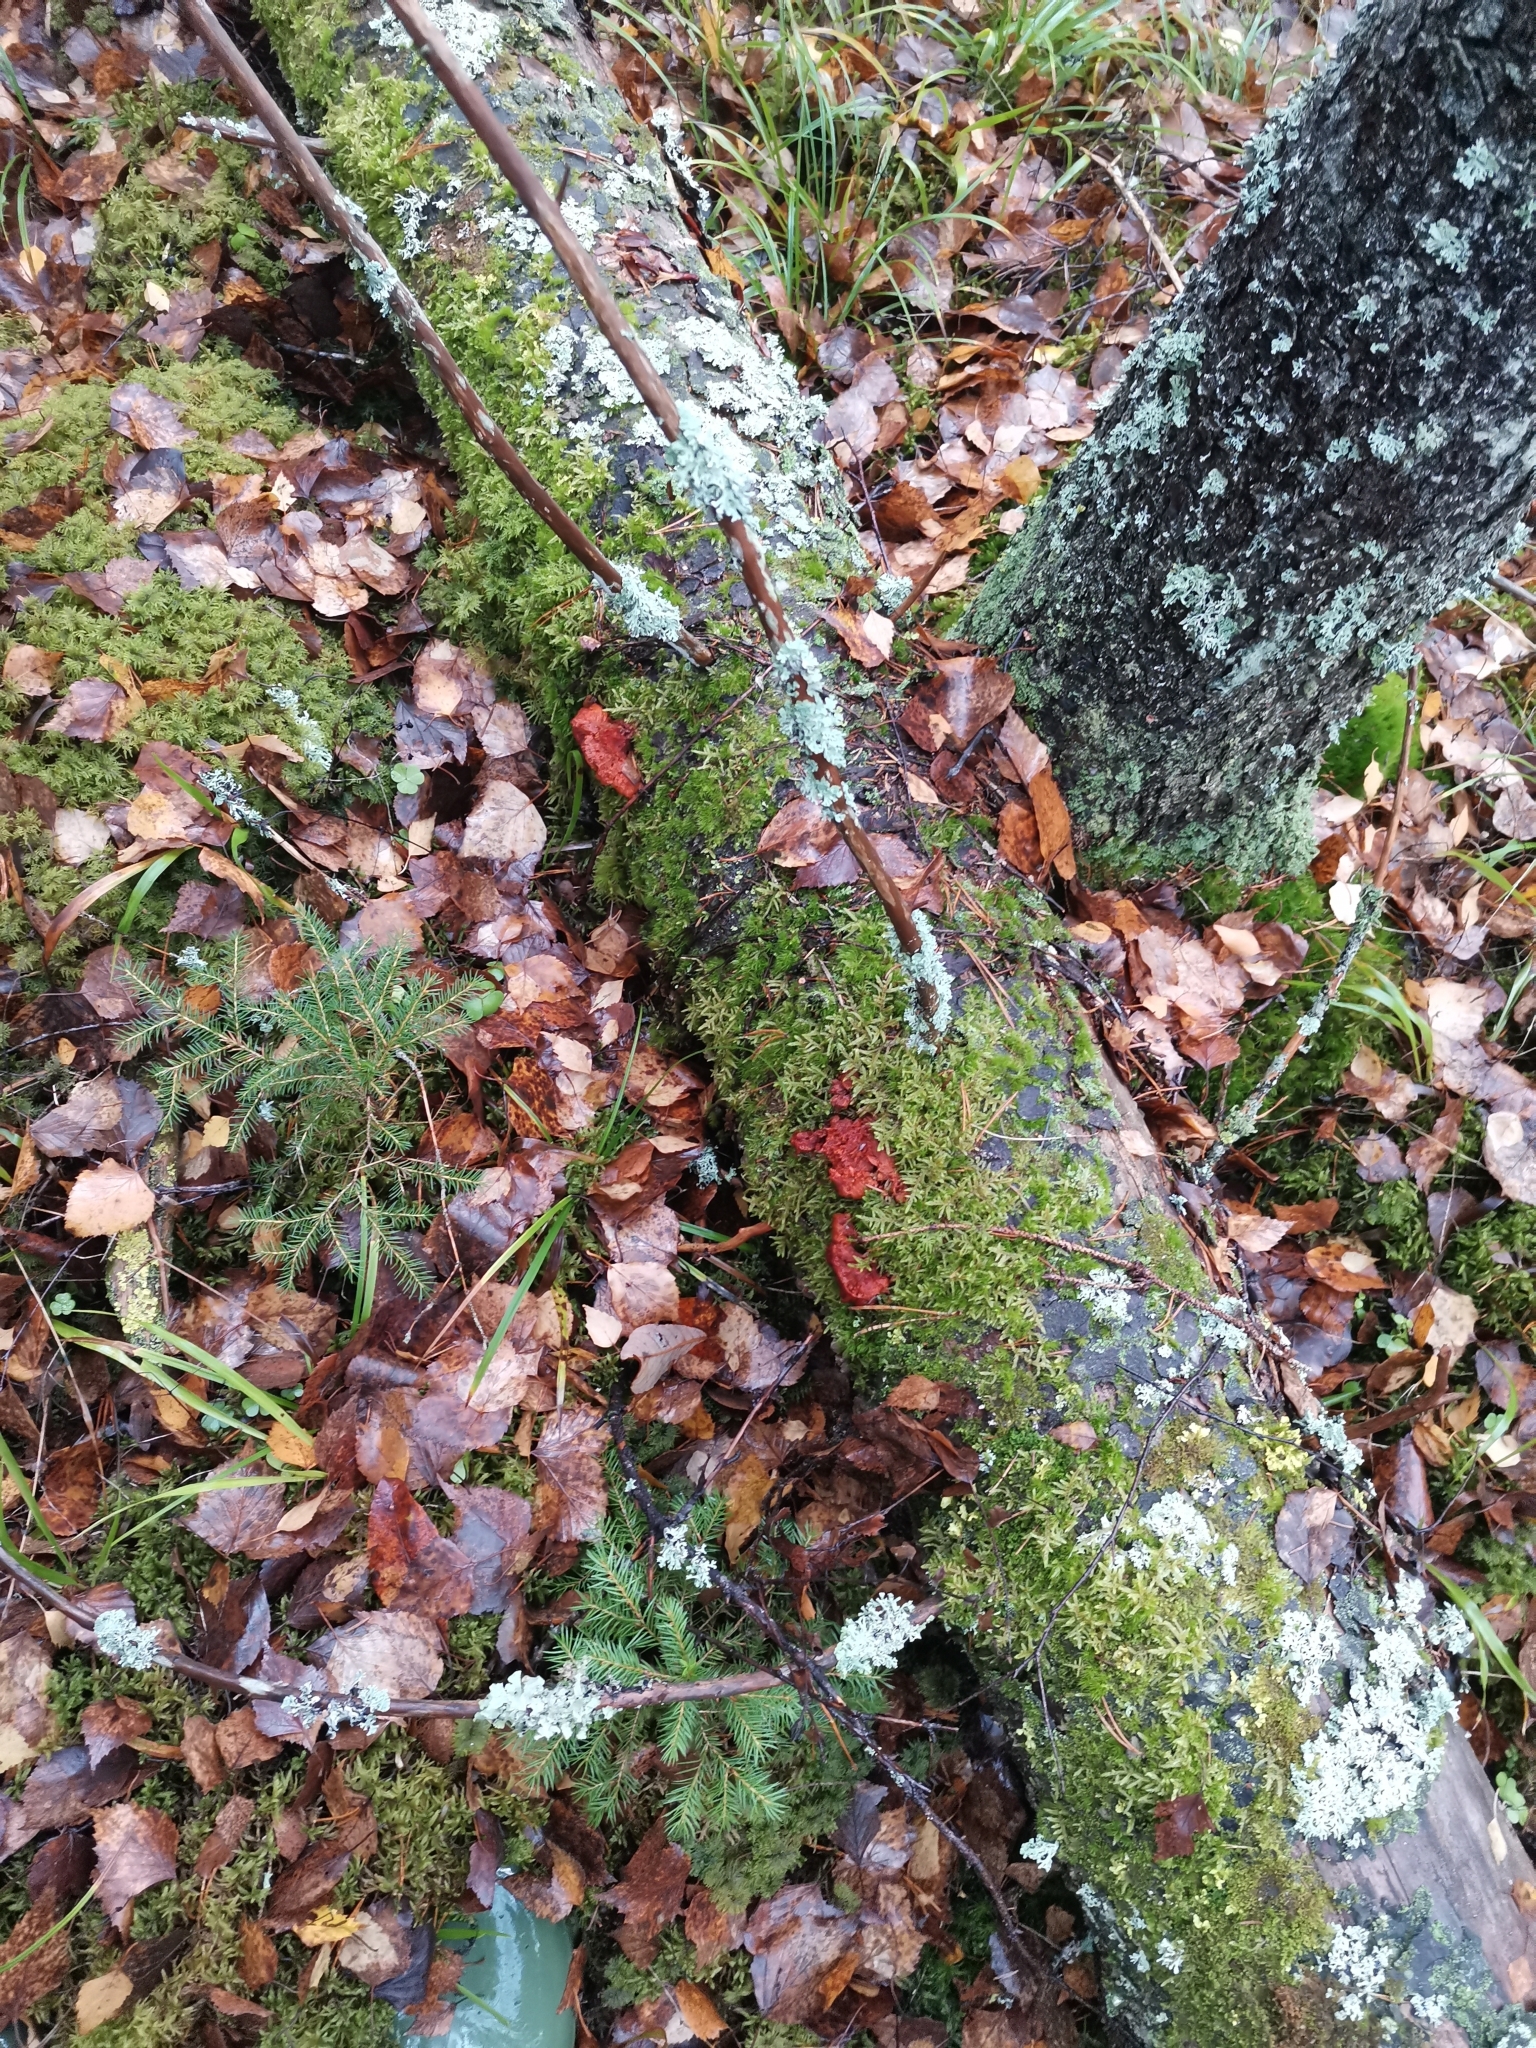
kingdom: Fungi
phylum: Basidiomycota
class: Agaricomycetes
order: Polyporales
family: Pycnoporellaceae
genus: Pycnoporellus
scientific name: Pycnoporellus fulgens
